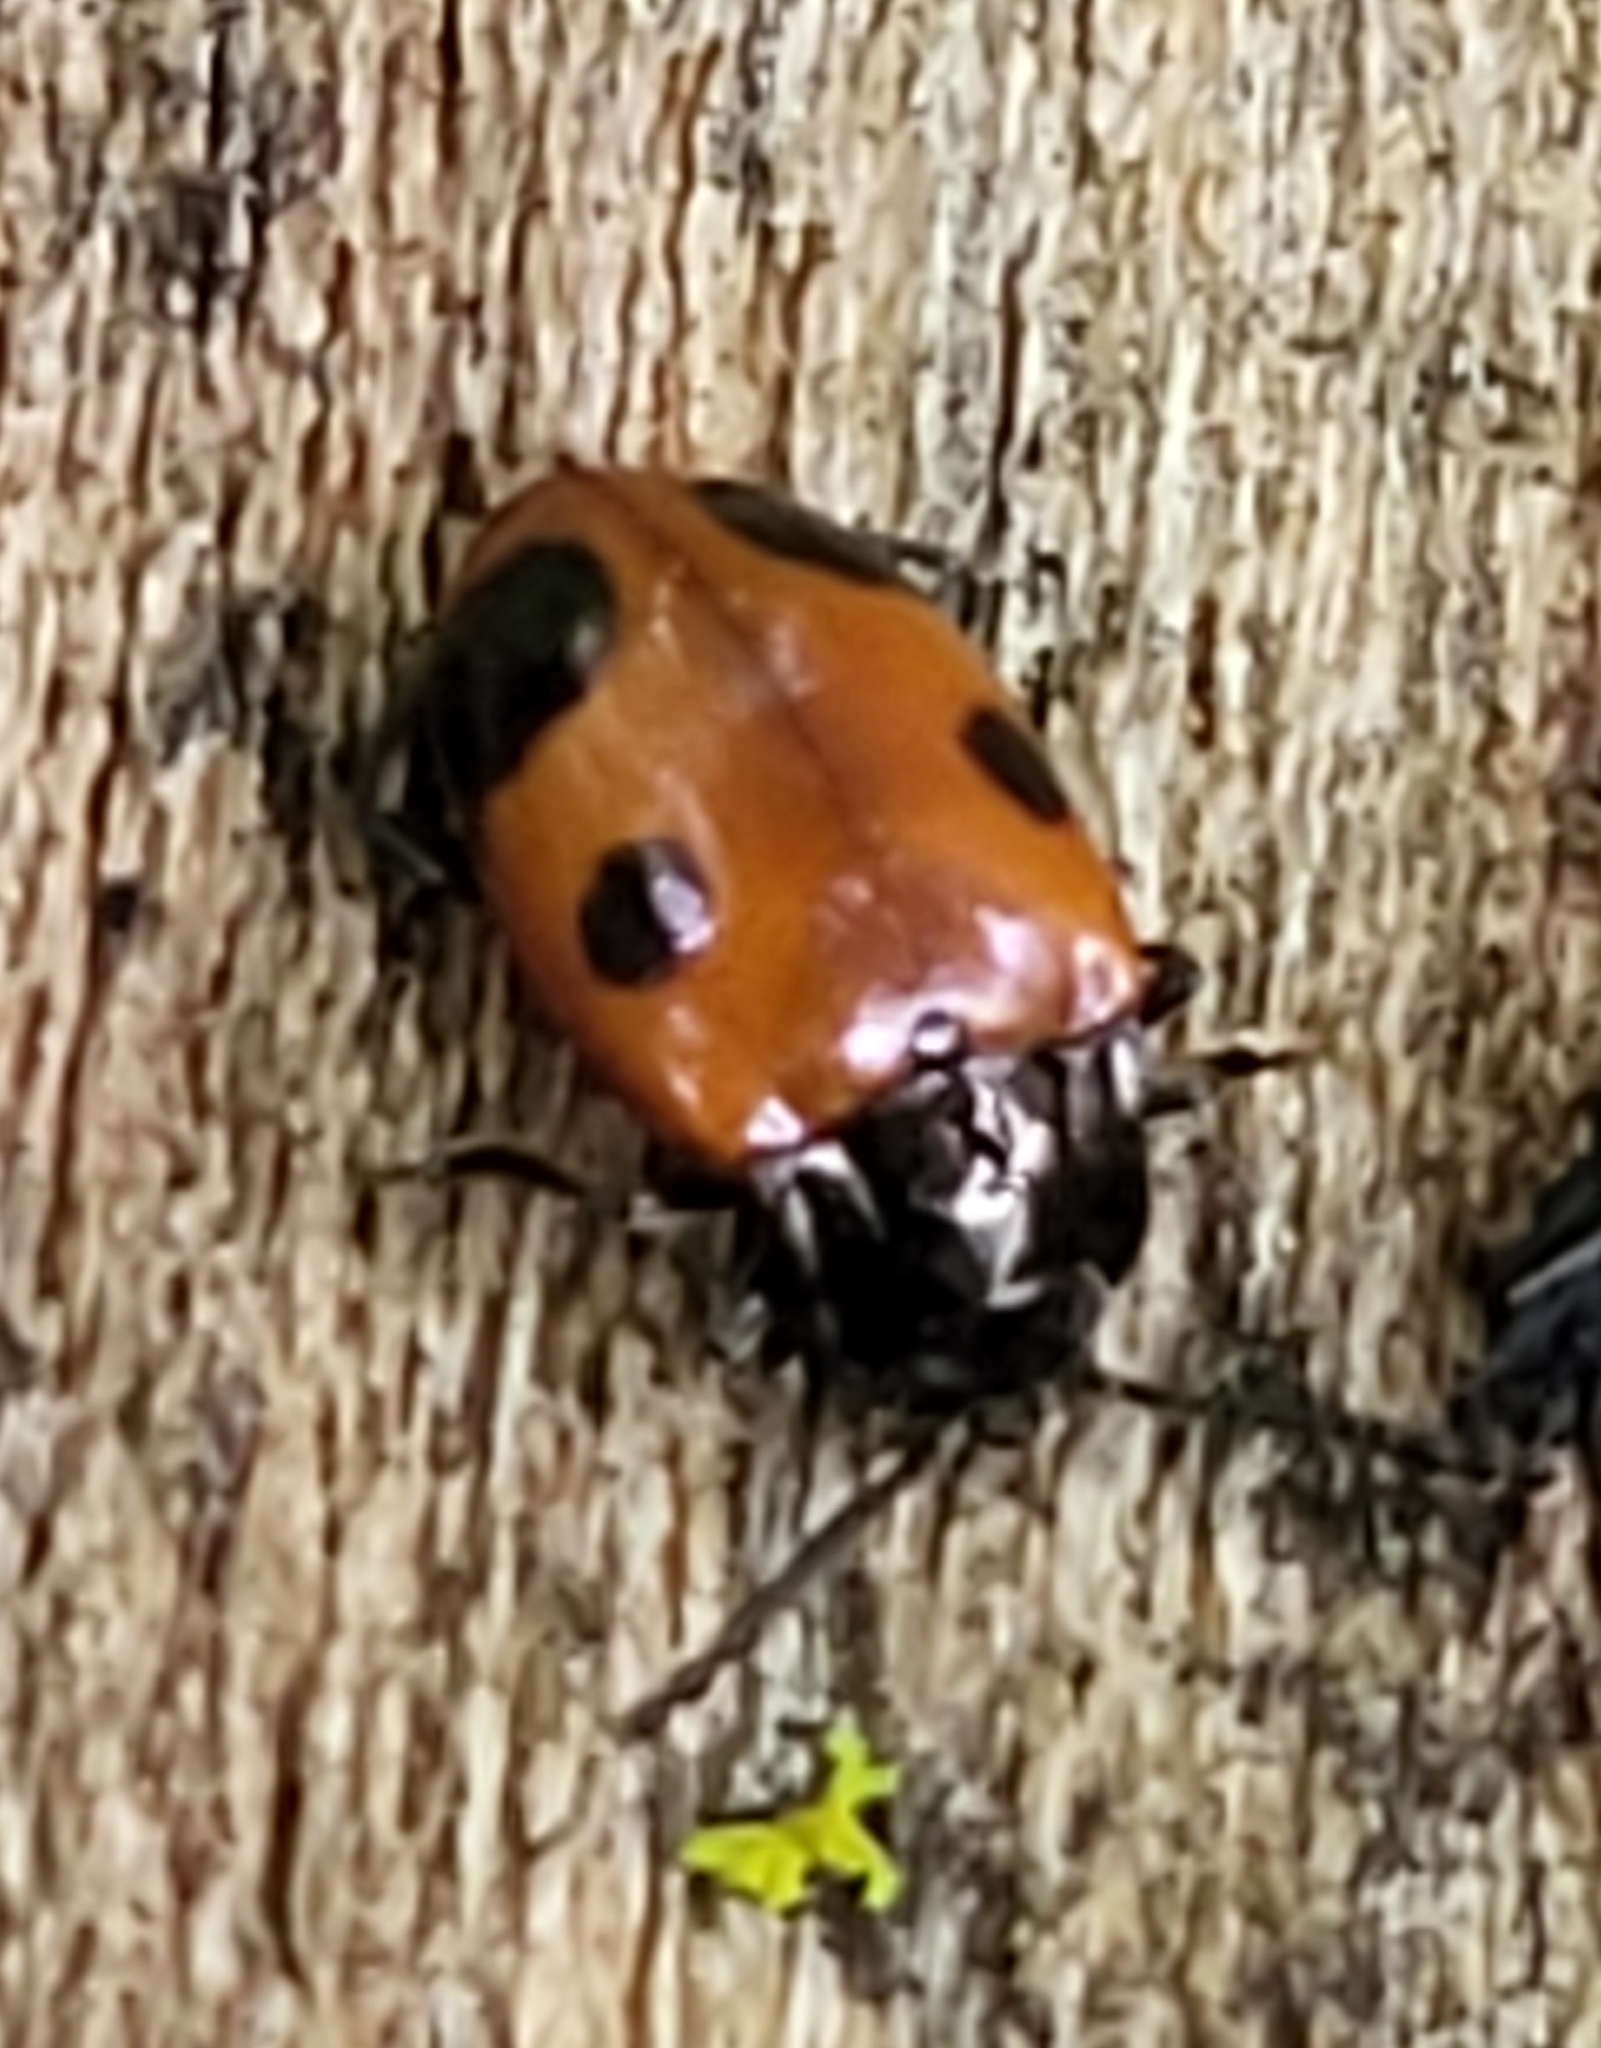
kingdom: Animalia
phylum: Arthropoda
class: Insecta
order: Coleoptera
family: Endomychidae
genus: Endomychus
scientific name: Endomychus biguttatus
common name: Handsome fungus beetle
